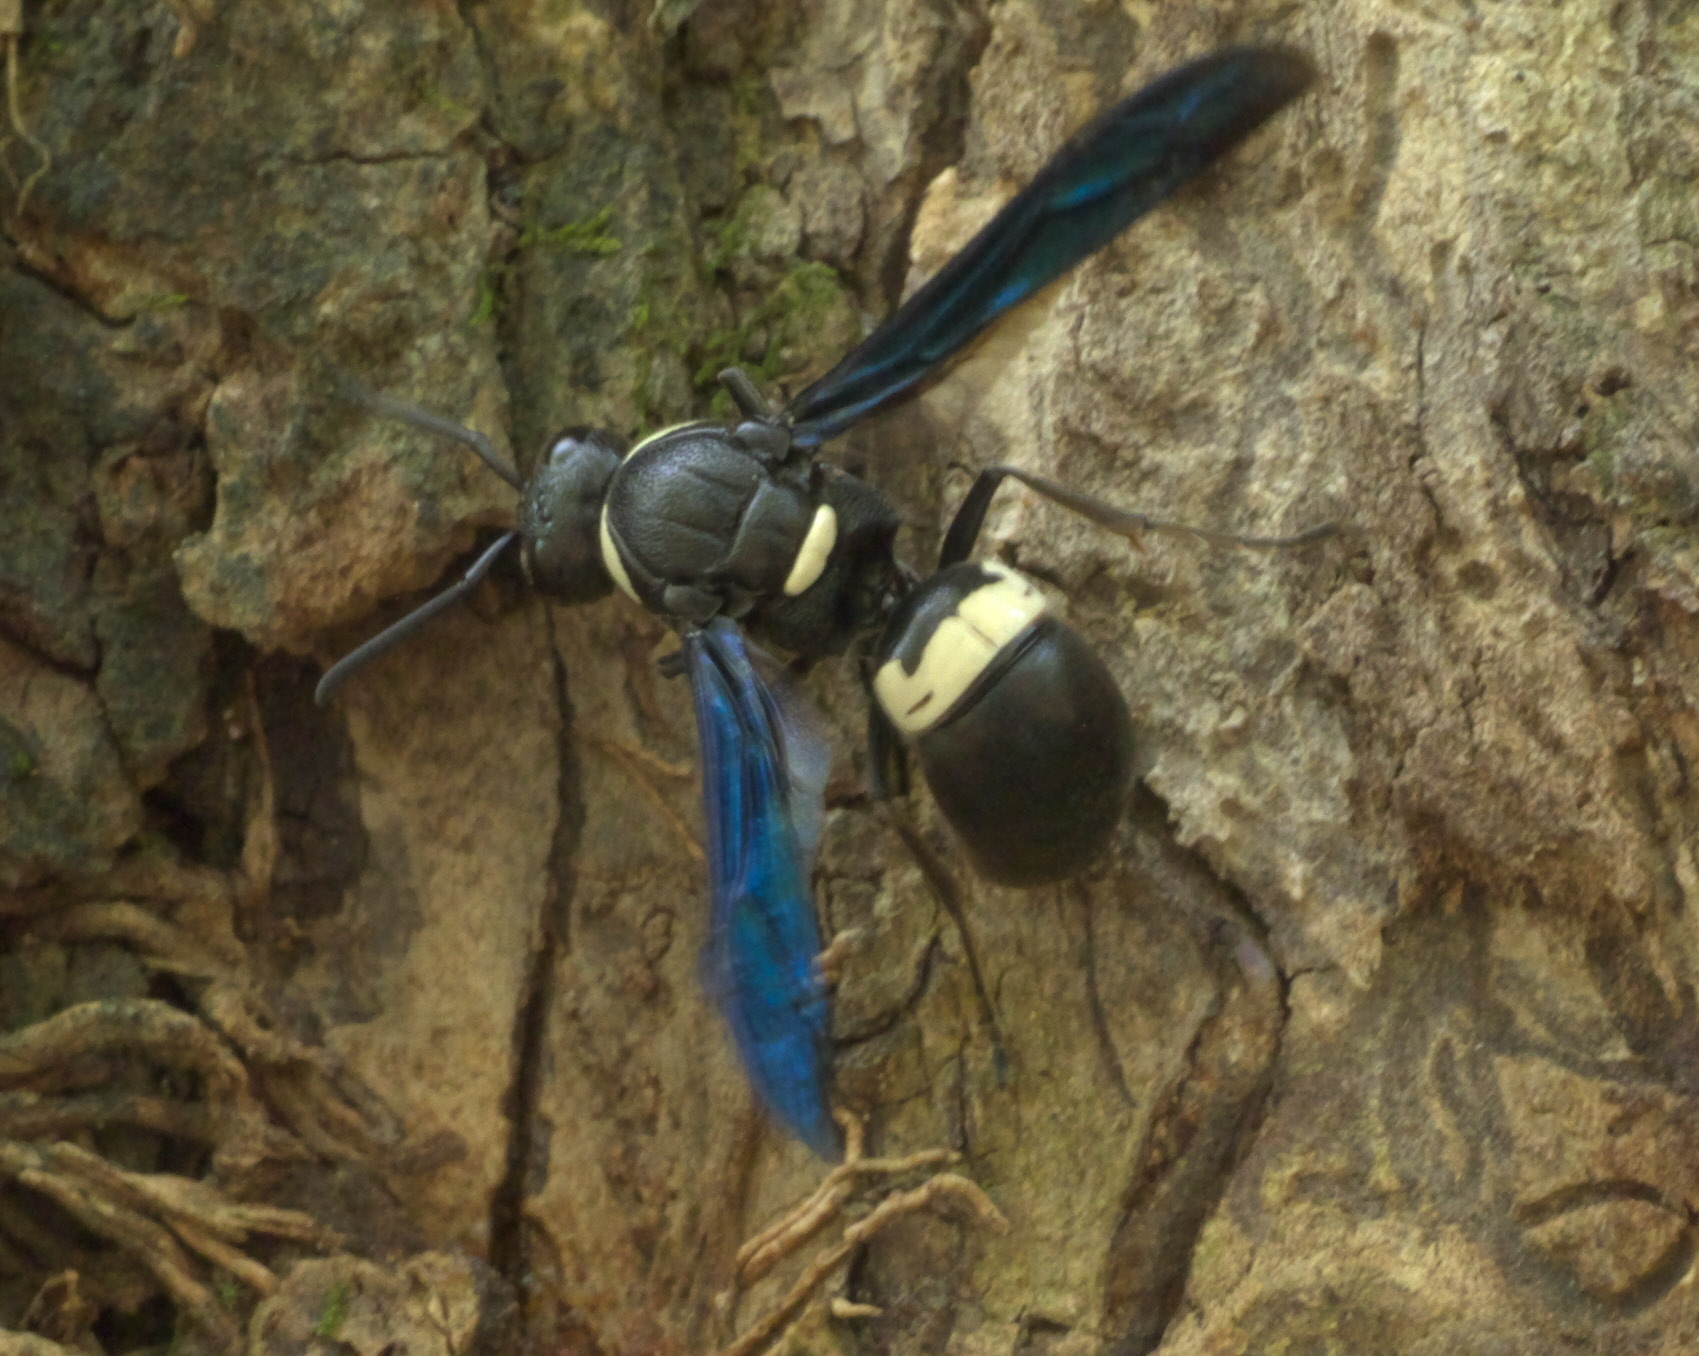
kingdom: Animalia
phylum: Arthropoda
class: Insecta
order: Hymenoptera
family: Eumenidae
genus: Monobia
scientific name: Monobia quadridens
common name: Four-toothed mason wasp
